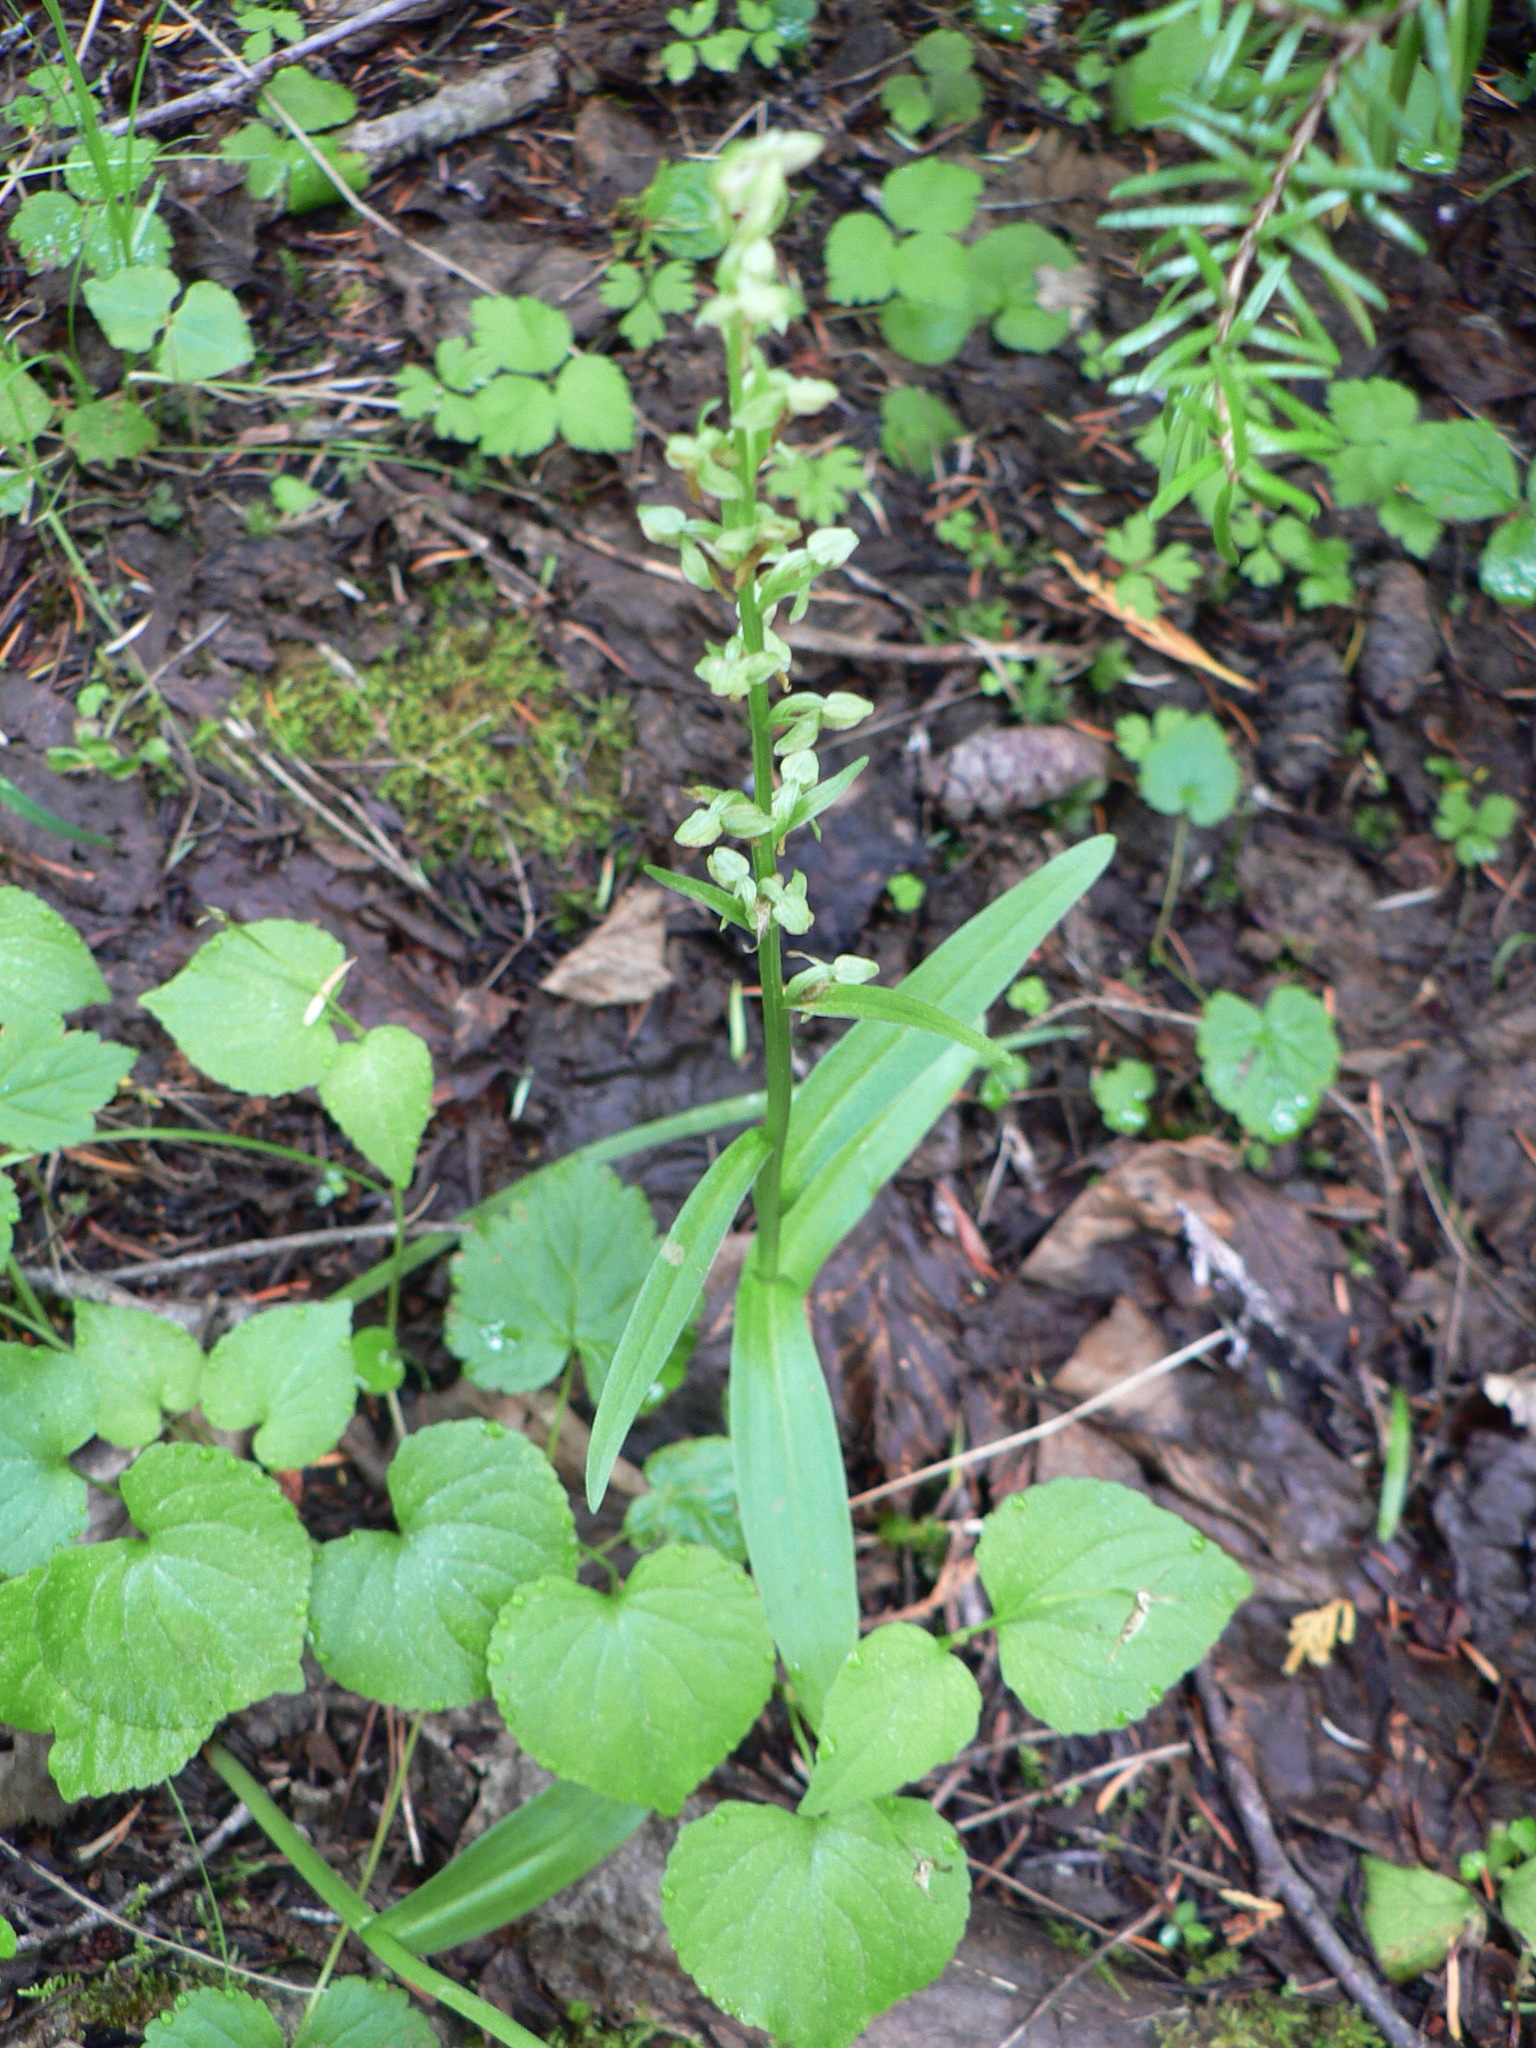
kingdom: Plantae
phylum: Tracheophyta
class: Liliopsida
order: Asparagales
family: Orchidaceae
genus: Platanthera
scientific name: Platanthera stricta
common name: Slender bog orchid
